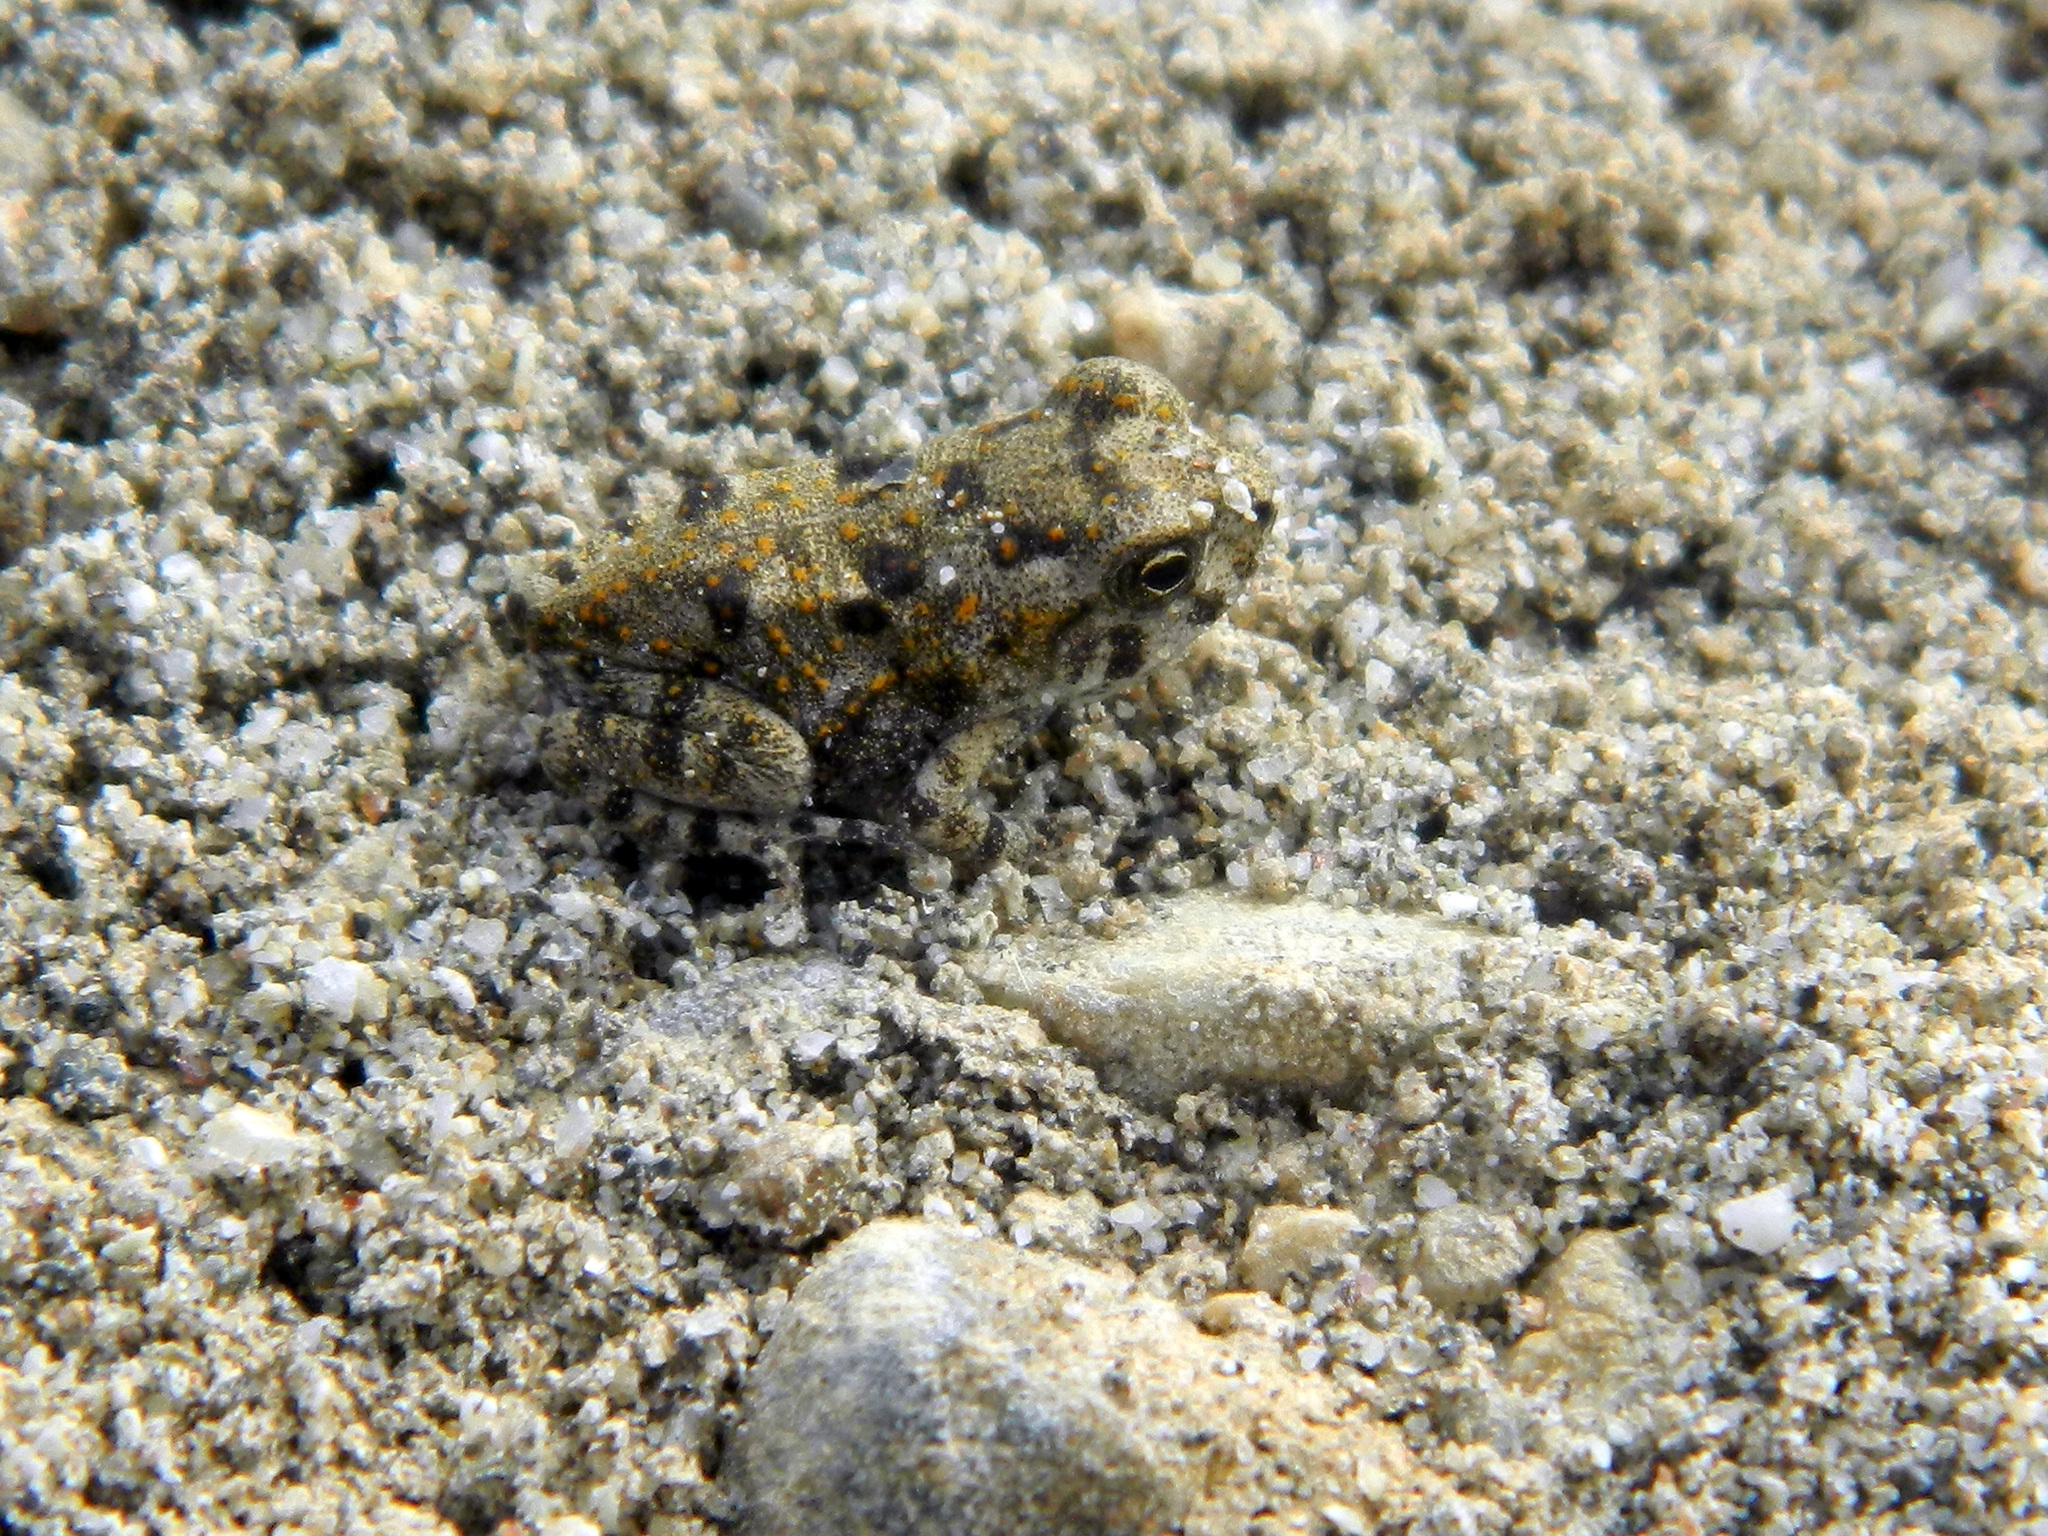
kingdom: Animalia
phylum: Chordata
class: Amphibia
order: Anura
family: Bufonidae
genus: Incilius
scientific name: Incilius marmoreus
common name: Marbled toad
